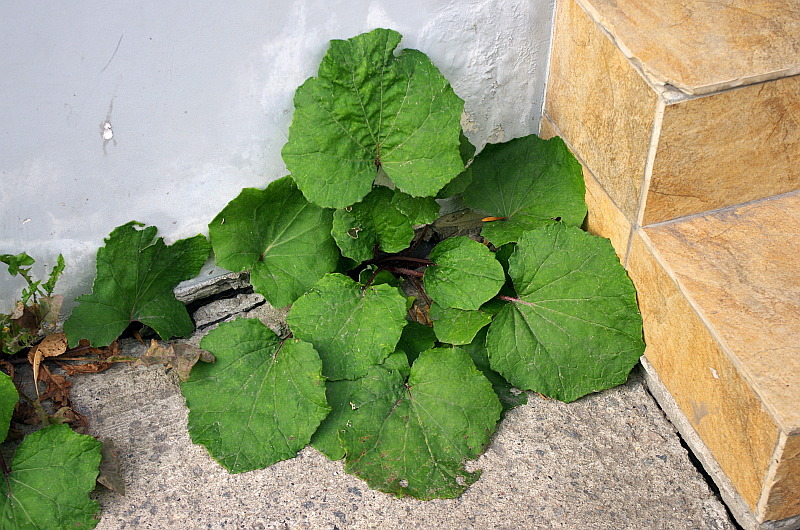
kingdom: Plantae
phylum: Tracheophyta
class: Magnoliopsida
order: Asterales
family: Asteraceae
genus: Tussilago
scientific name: Tussilago farfara
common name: Coltsfoot
